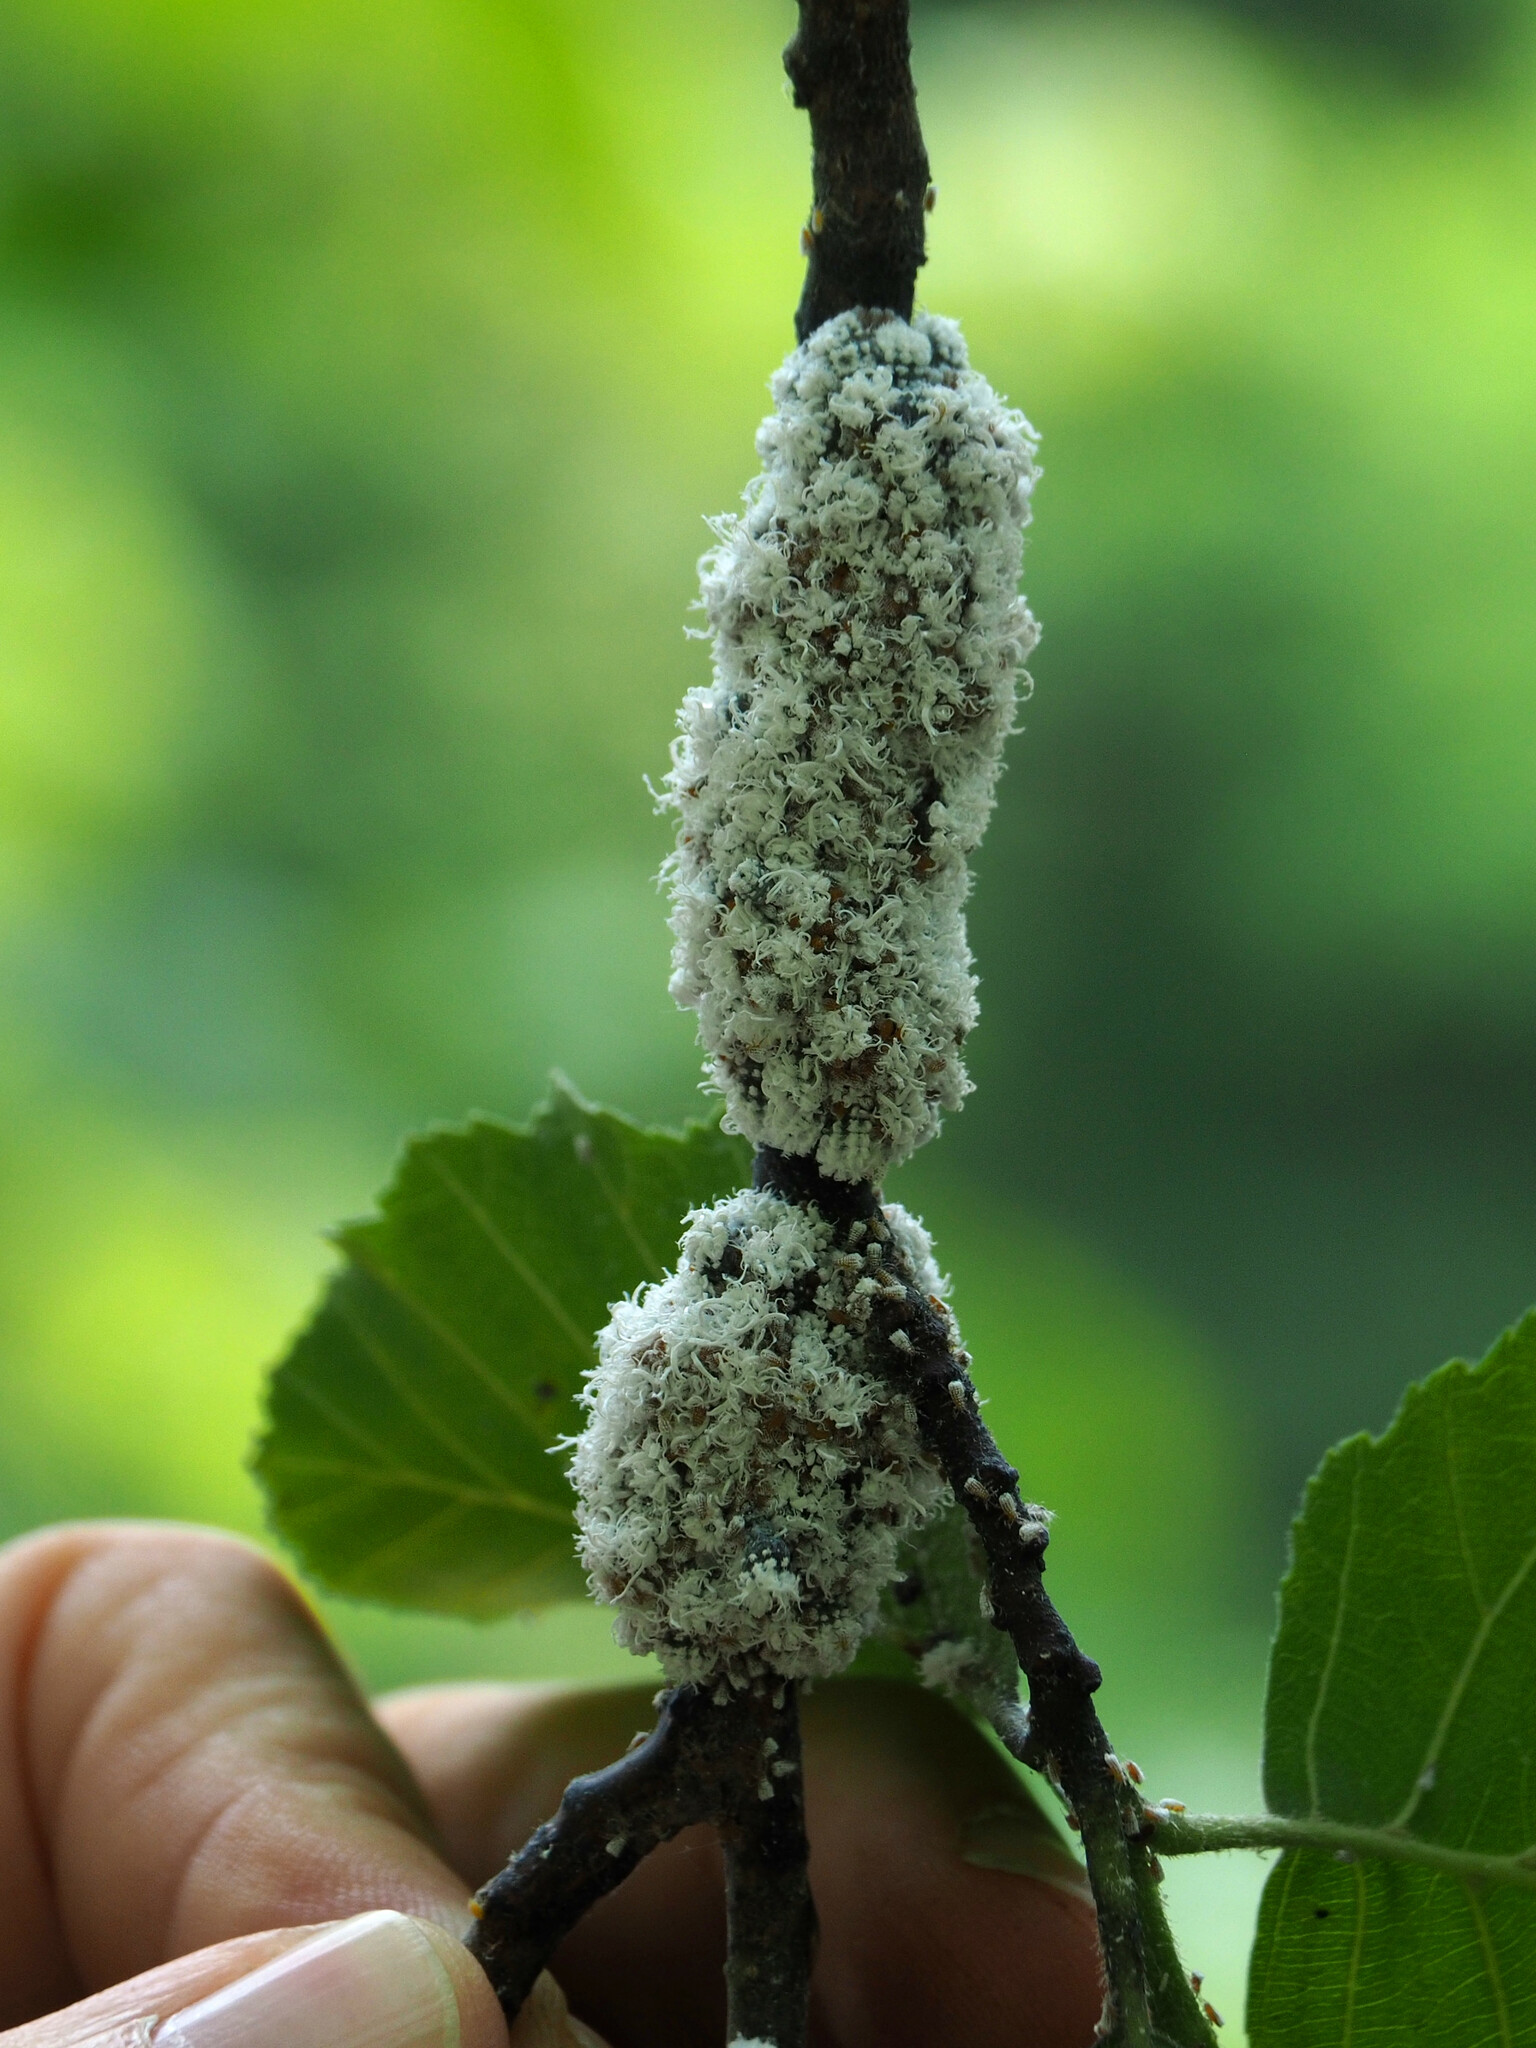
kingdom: Animalia
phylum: Arthropoda
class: Insecta
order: Hemiptera
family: Aphididae
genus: Prociphilus
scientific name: Prociphilus tessellatus
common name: Woolly alder aphid
